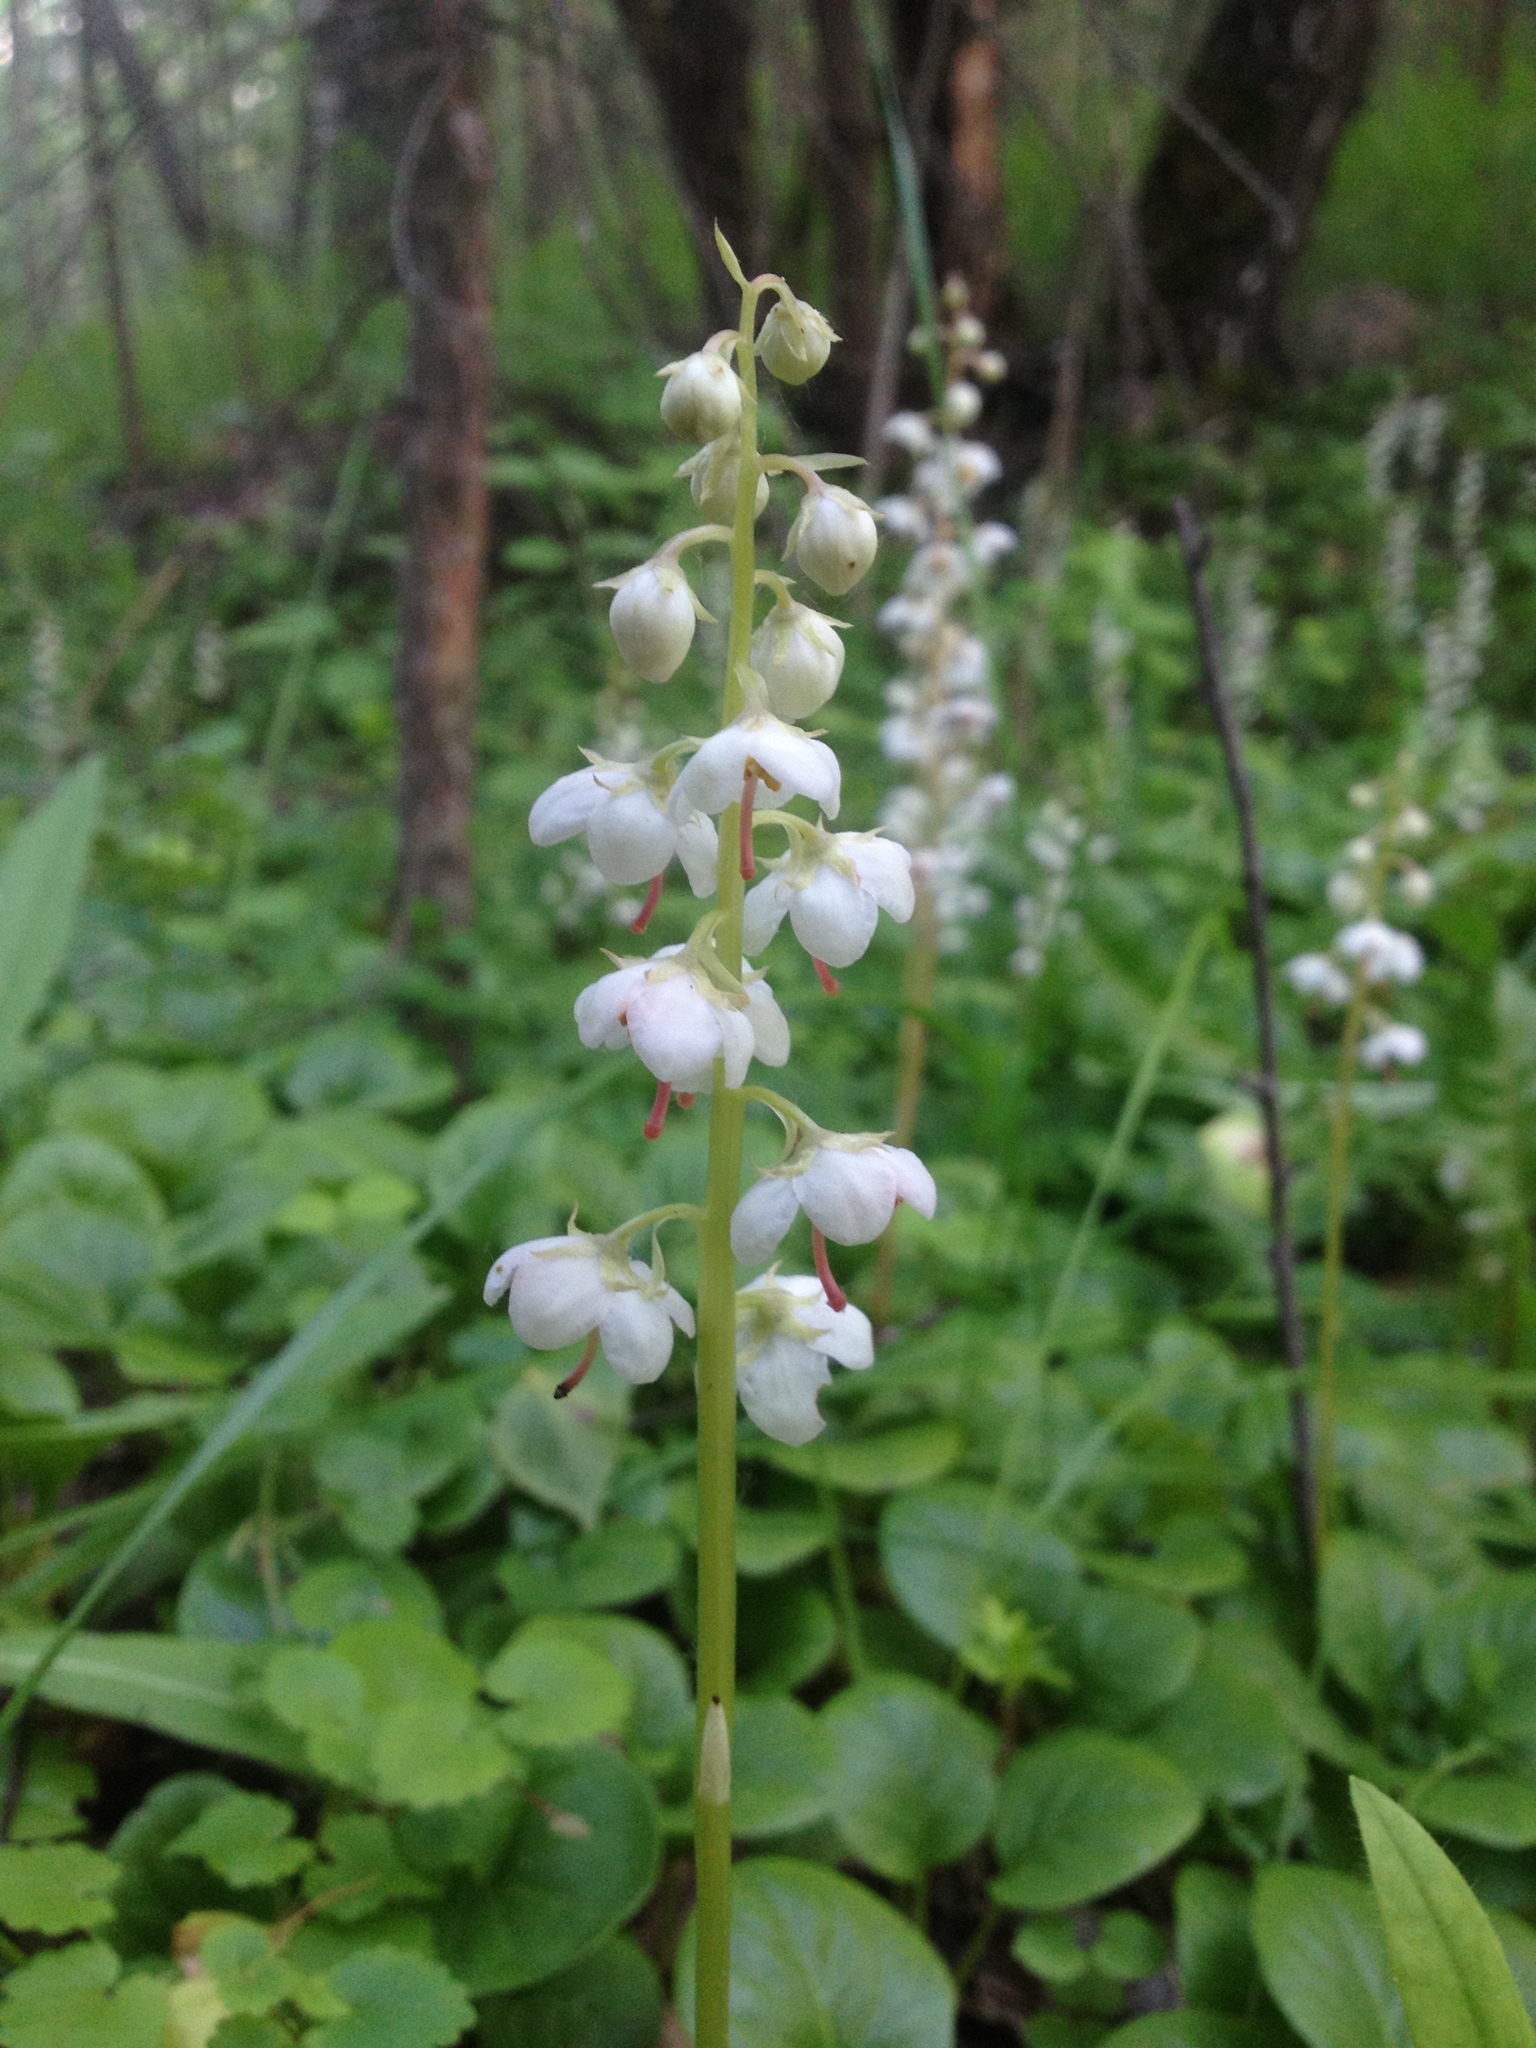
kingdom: Plantae
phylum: Tracheophyta
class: Magnoliopsida
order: Ericales
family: Ericaceae
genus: Pyrola
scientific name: Pyrola rotundifolia
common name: Round-leaved wintergreen
